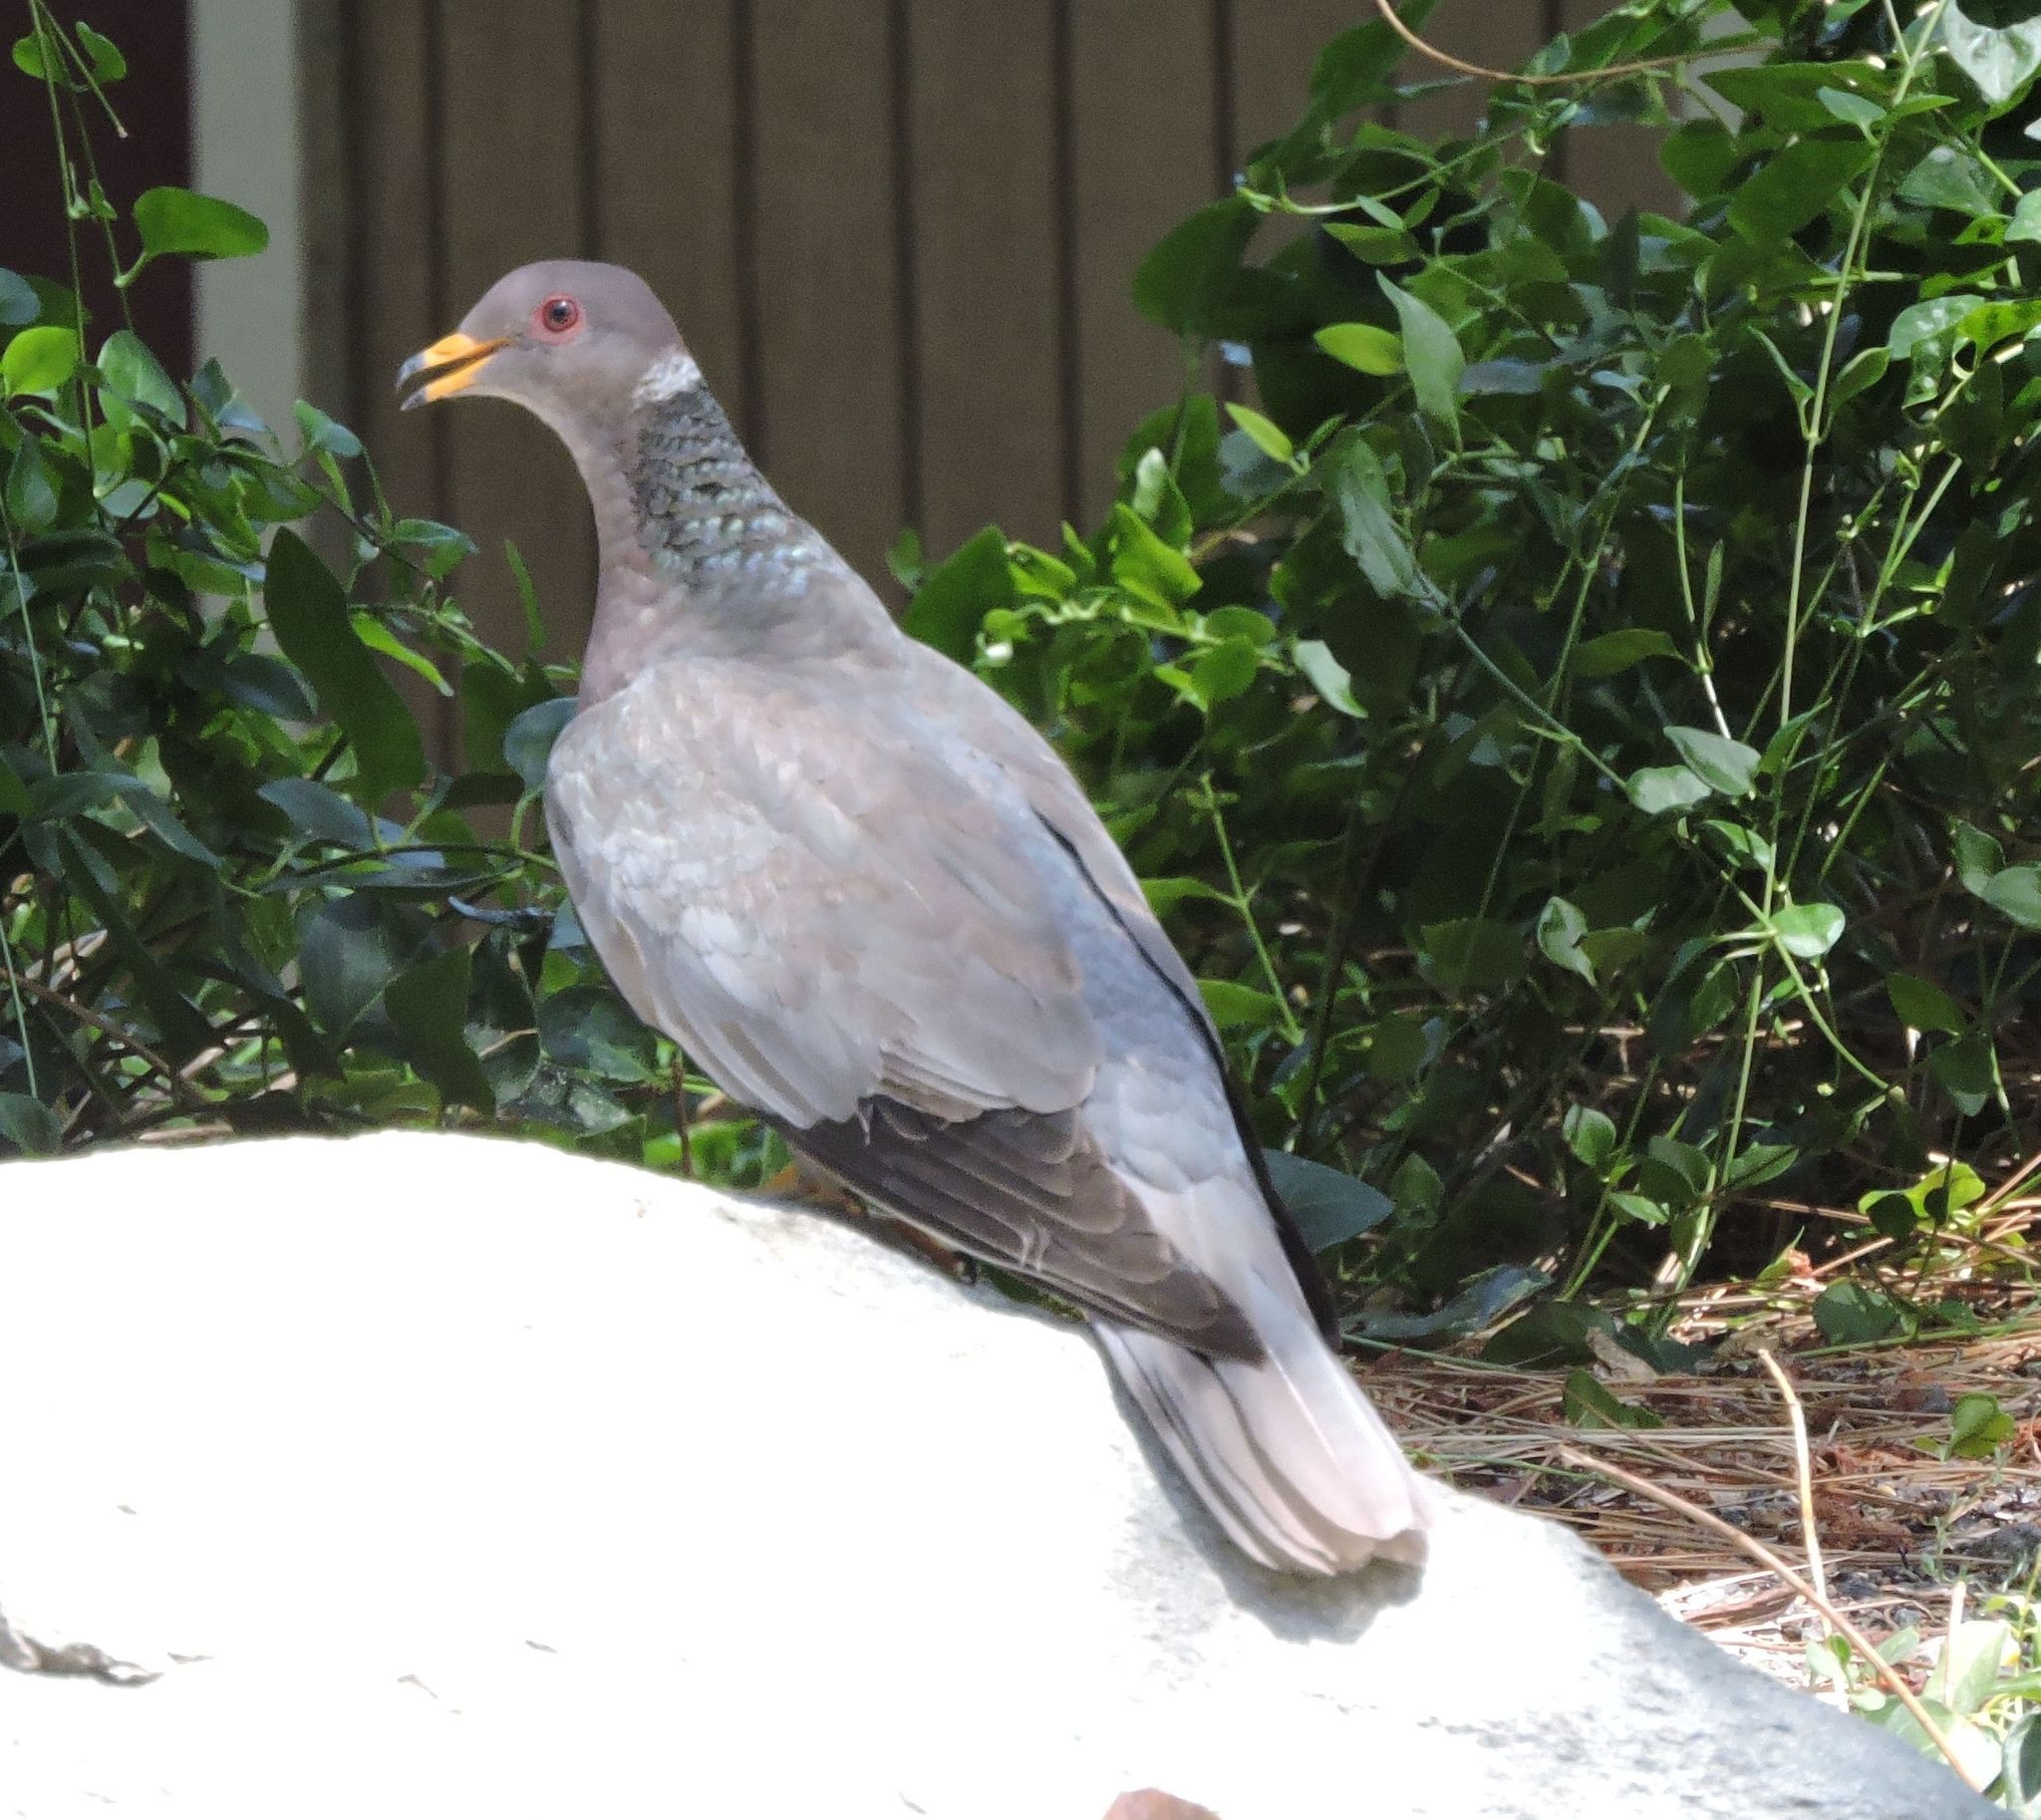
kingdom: Animalia
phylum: Chordata
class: Aves
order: Columbiformes
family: Columbidae
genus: Patagioenas
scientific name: Patagioenas fasciata
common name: Band-tailed pigeon
